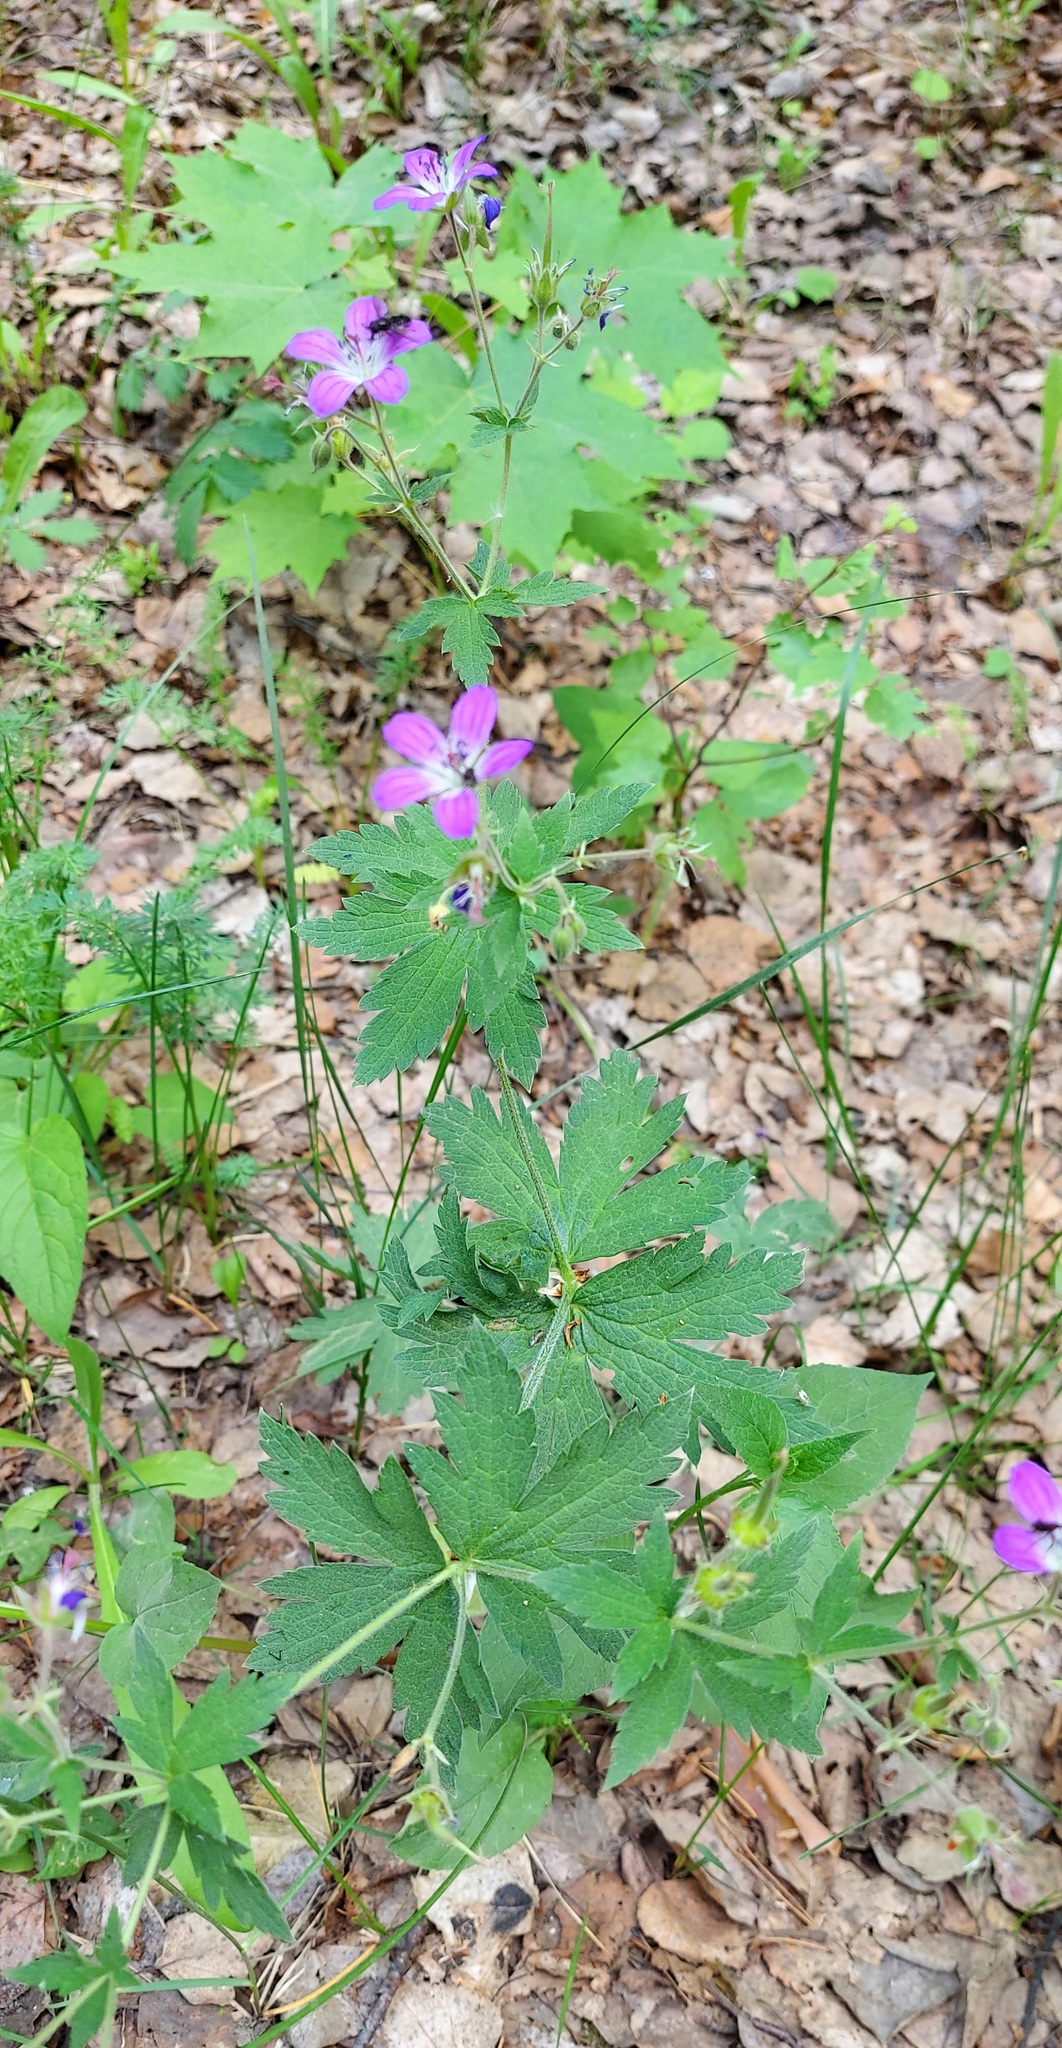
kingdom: Plantae
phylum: Tracheophyta
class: Magnoliopsida
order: Geraniales
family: Geraniaceae
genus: Geranium
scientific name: Geranium sylvaticum
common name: Wood crane's-bill
